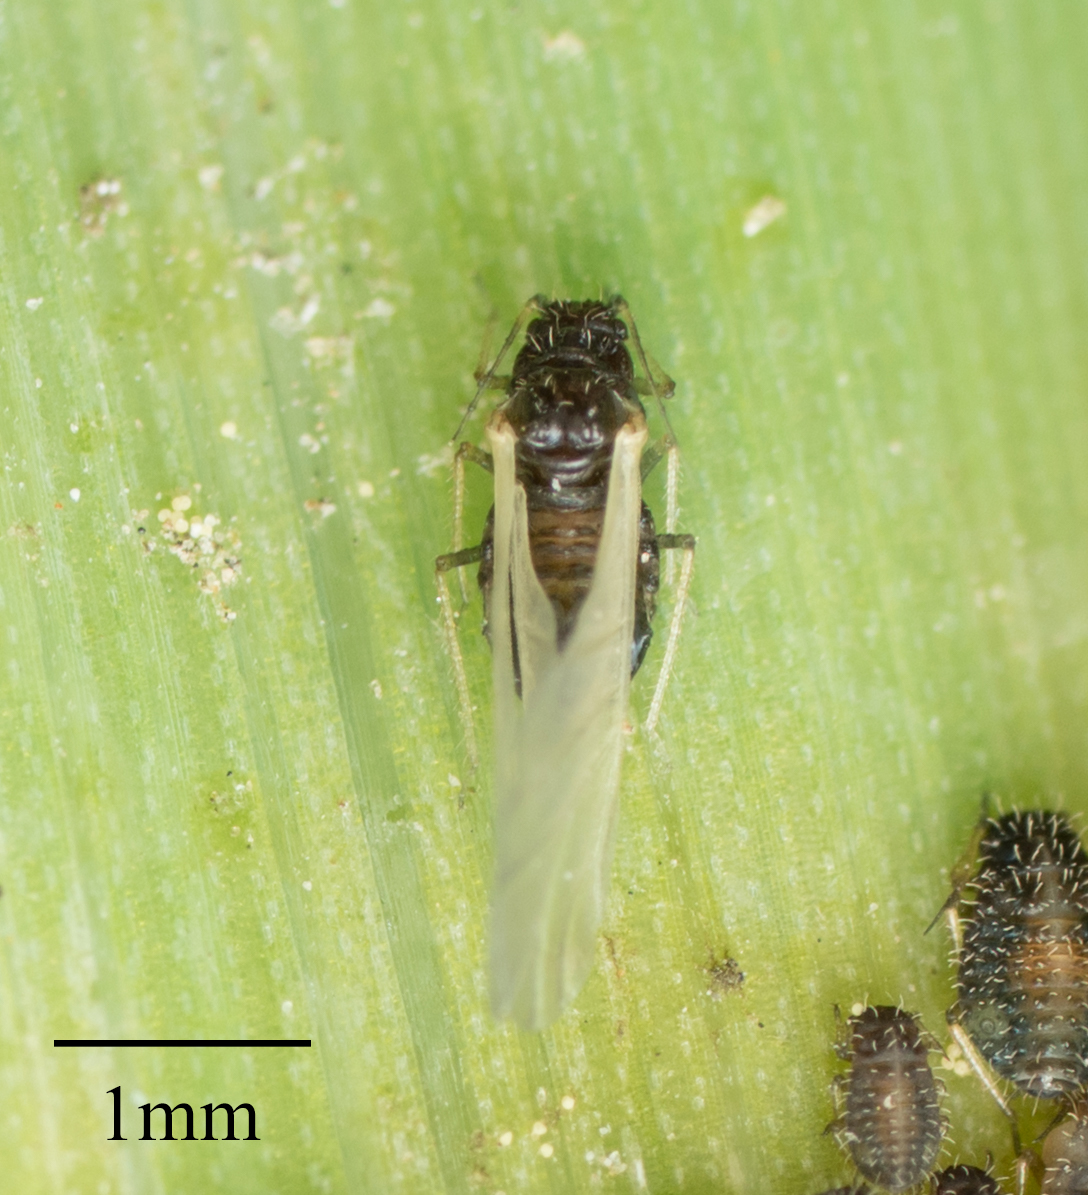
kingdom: Animalia
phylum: Arthropoda
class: Insecta
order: Hemiptera
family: Aphididae
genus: Sipha
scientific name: Sipha maydis
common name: Aphid
